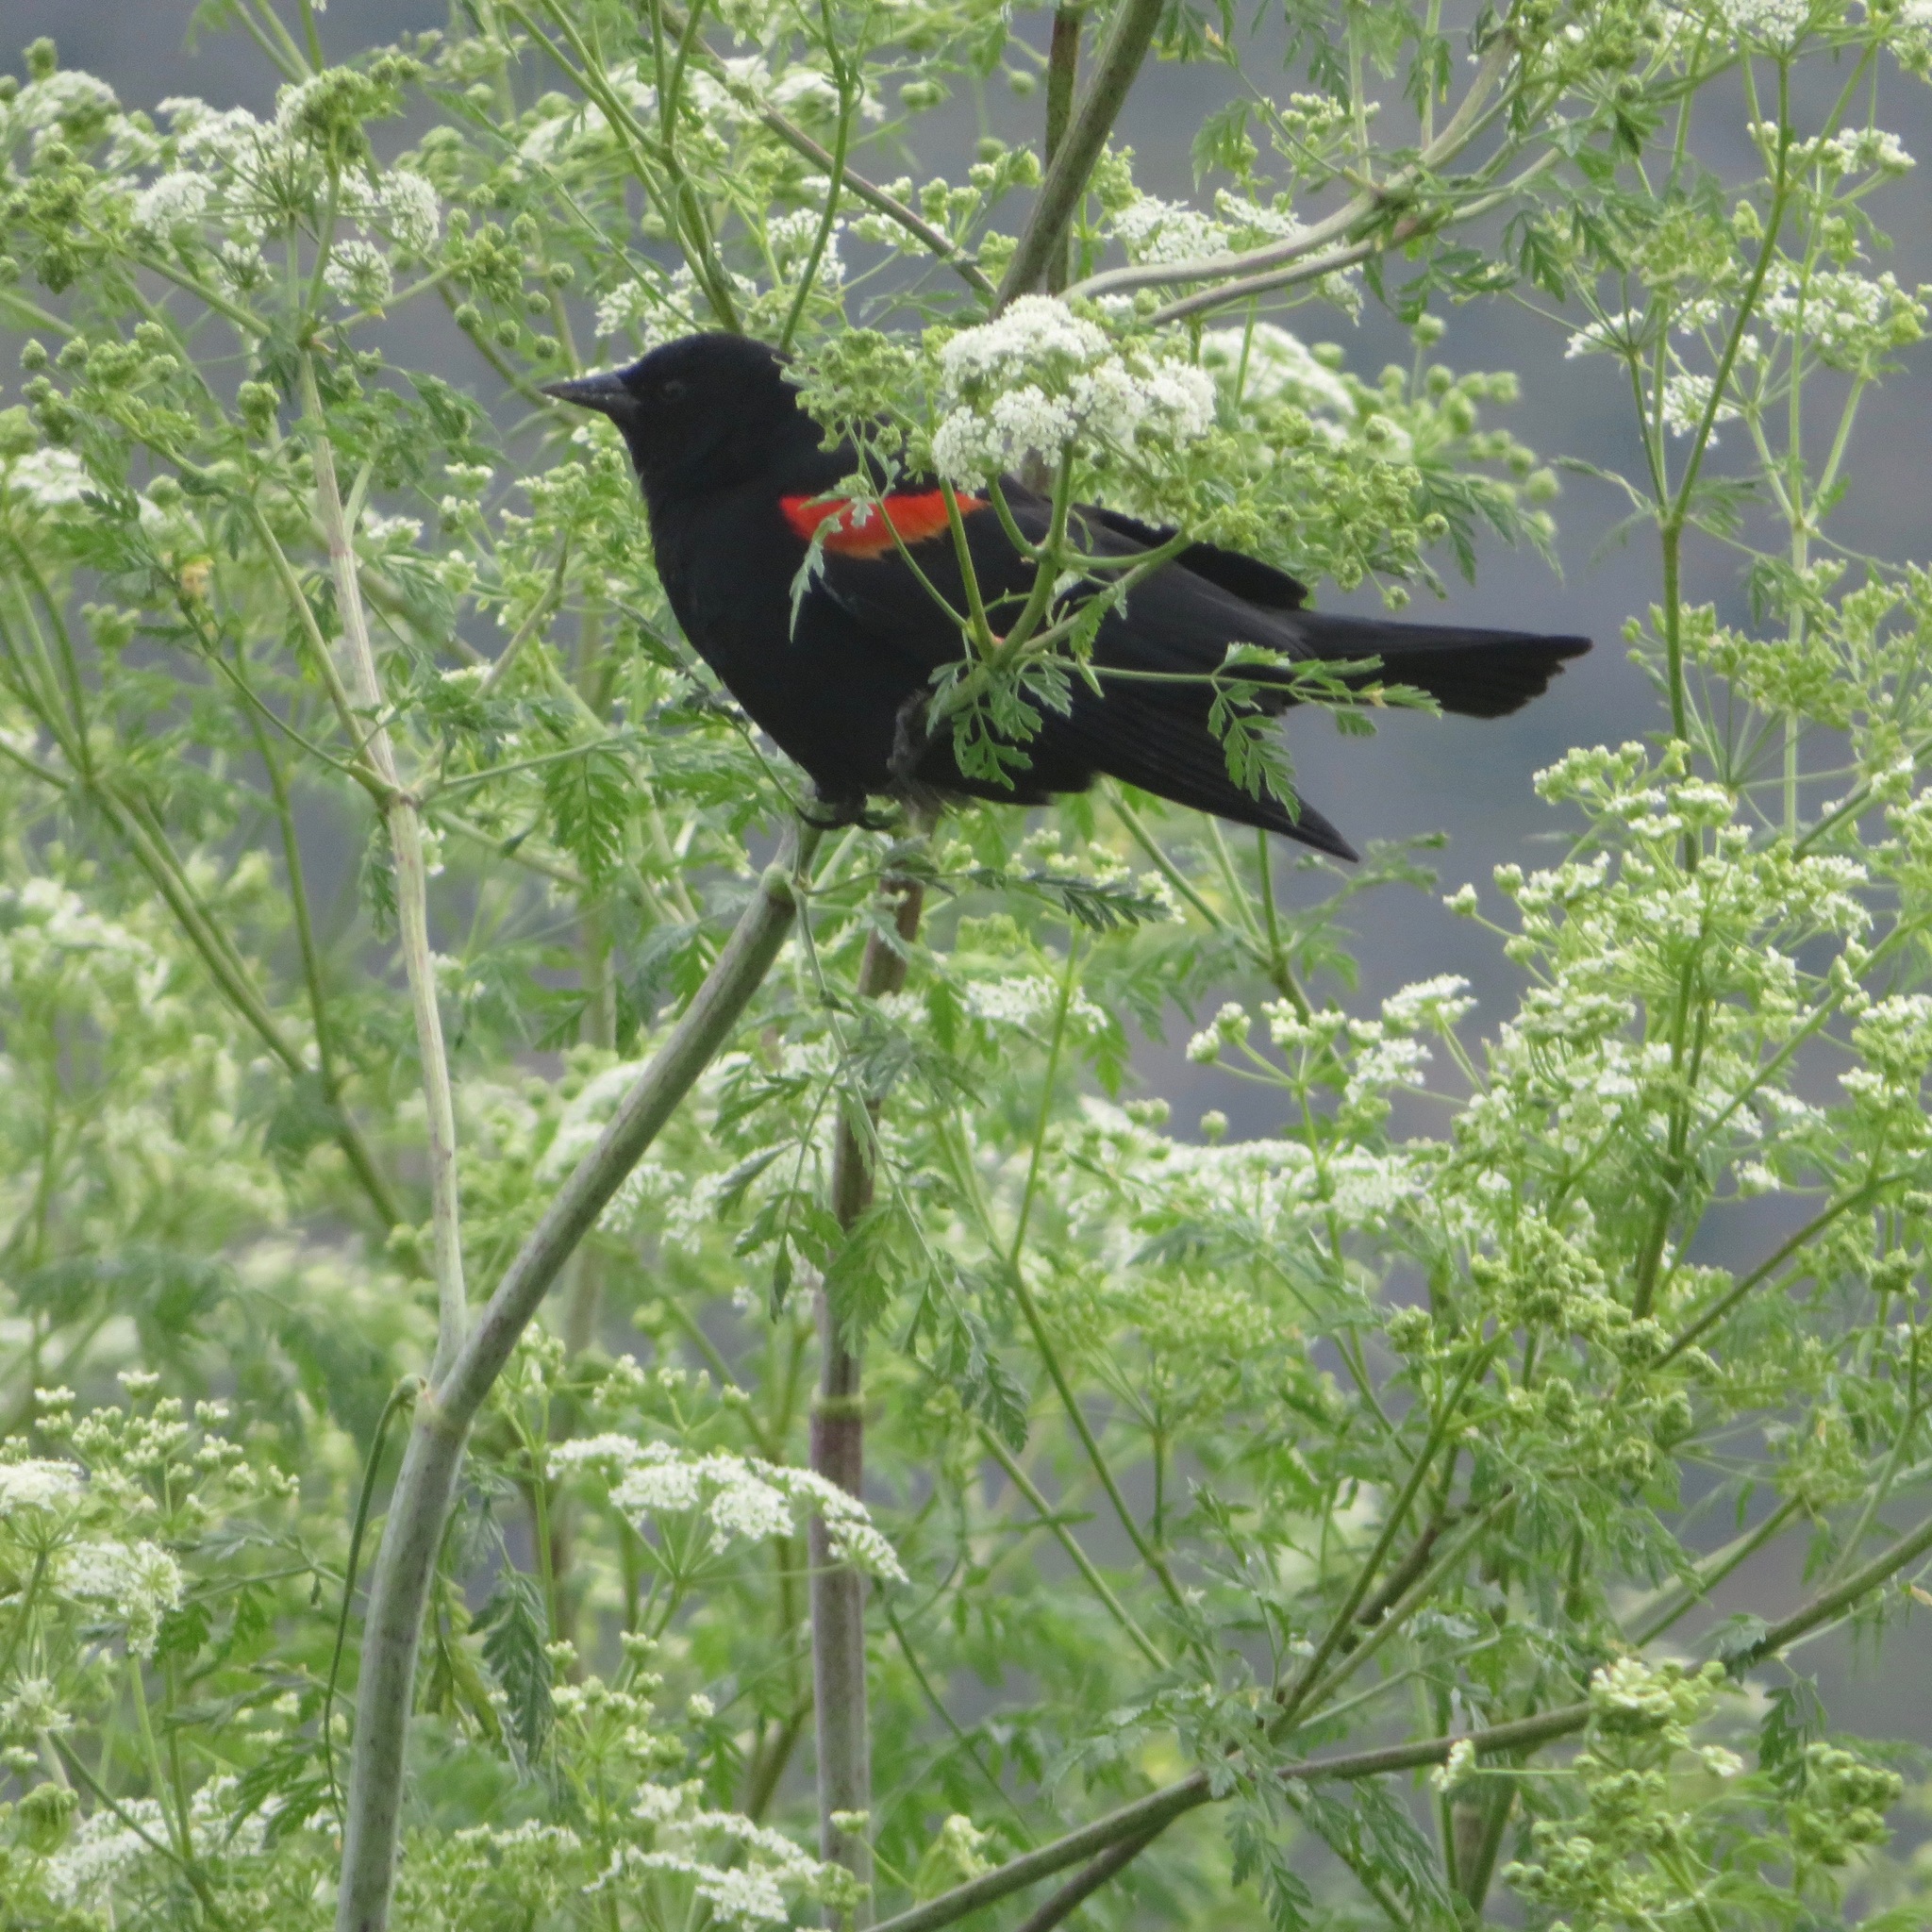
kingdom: Animalia
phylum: Chordata
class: Aves
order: Passeriformes
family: Icteridae
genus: Agelaius
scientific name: Agelaius phoeniceus
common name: Red-winged blackbird
